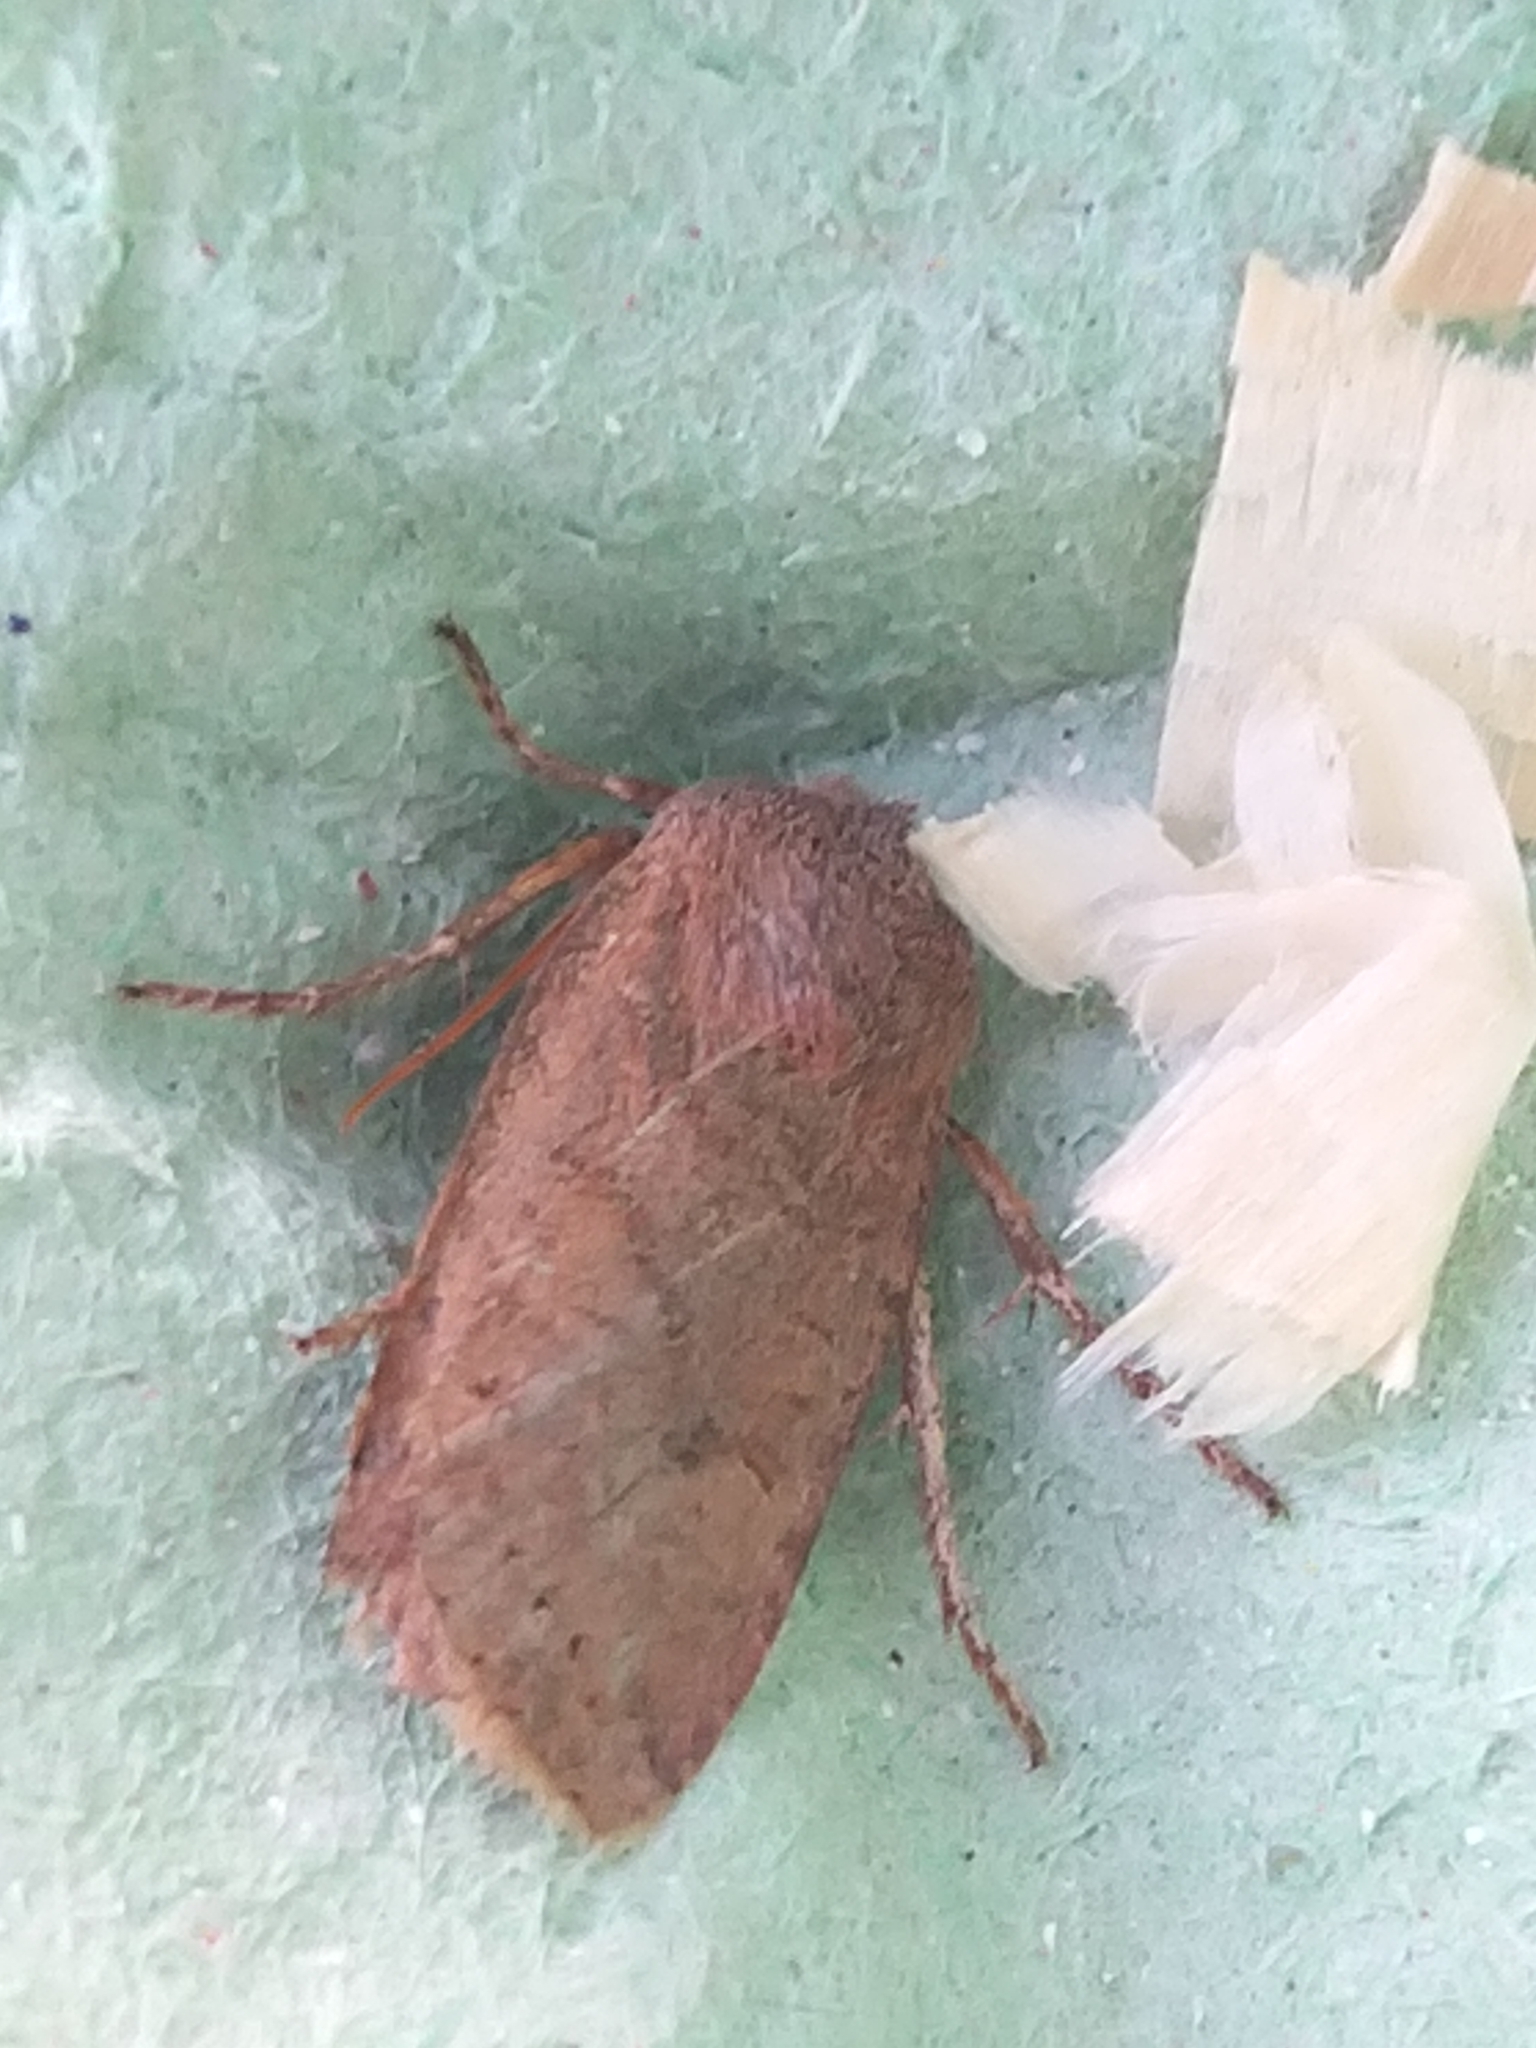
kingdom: Animalia
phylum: Arthropoda
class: Insecta
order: Lepidoptera
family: Noctuidae
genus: Conistra
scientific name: Conistra vaccinii
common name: Chestnut
